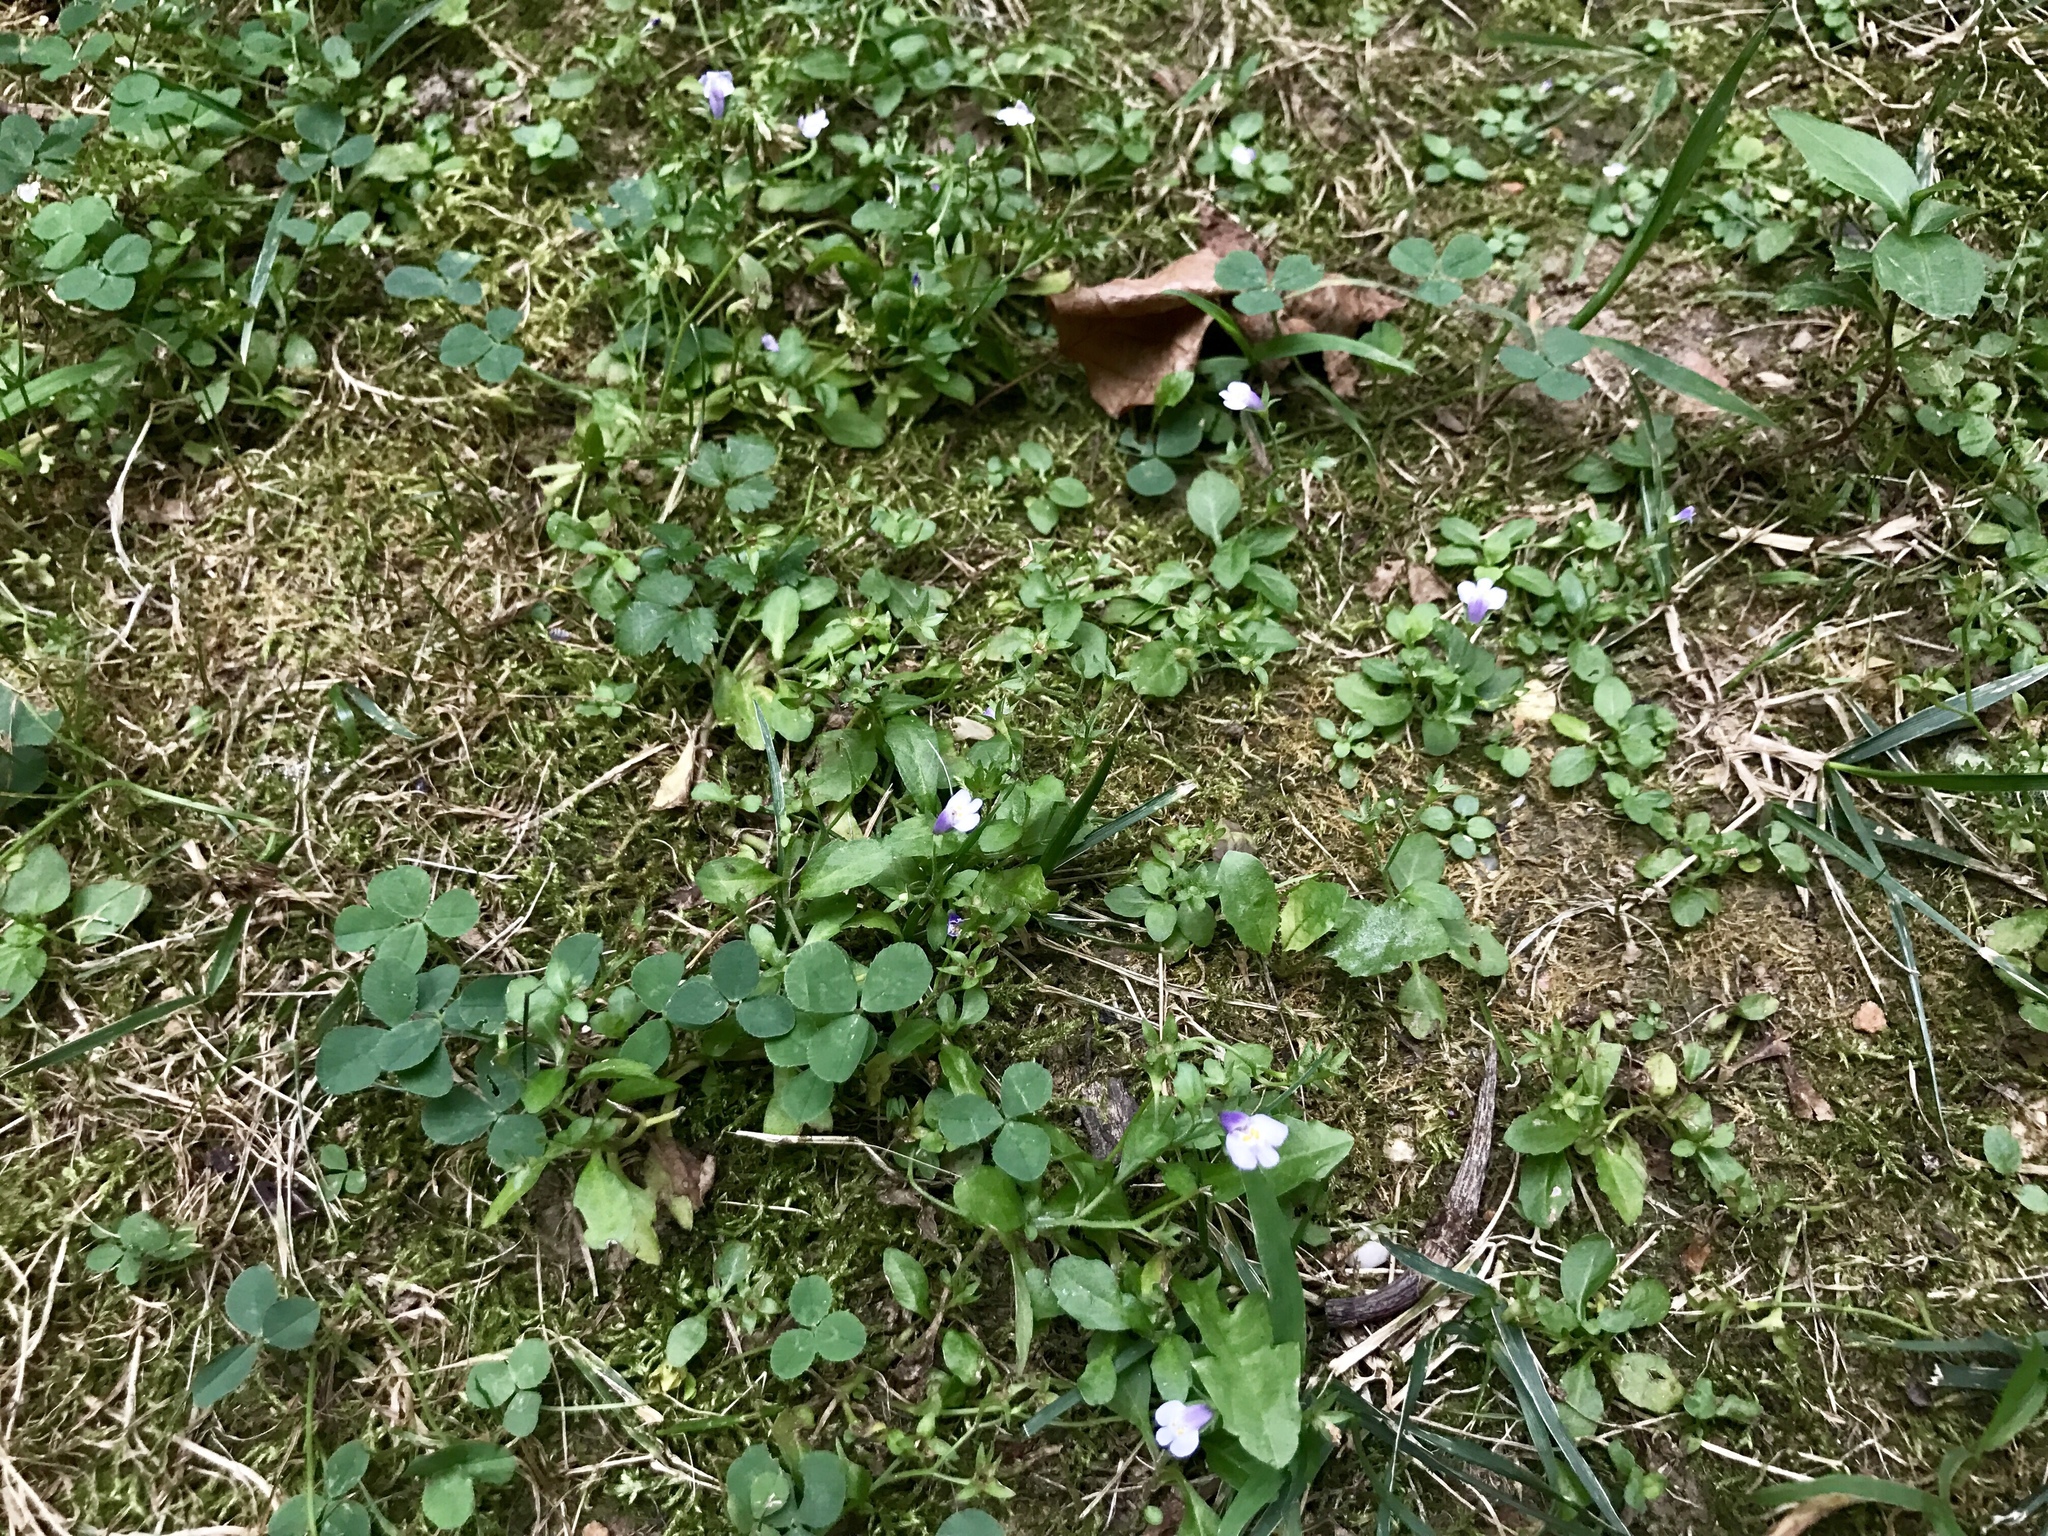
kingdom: Plantae
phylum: Tracheophyta
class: Magnoliopsida
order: Lamiales
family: Mazaceae
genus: Mazus
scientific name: Mazus pumilus
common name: Japanese mazus
